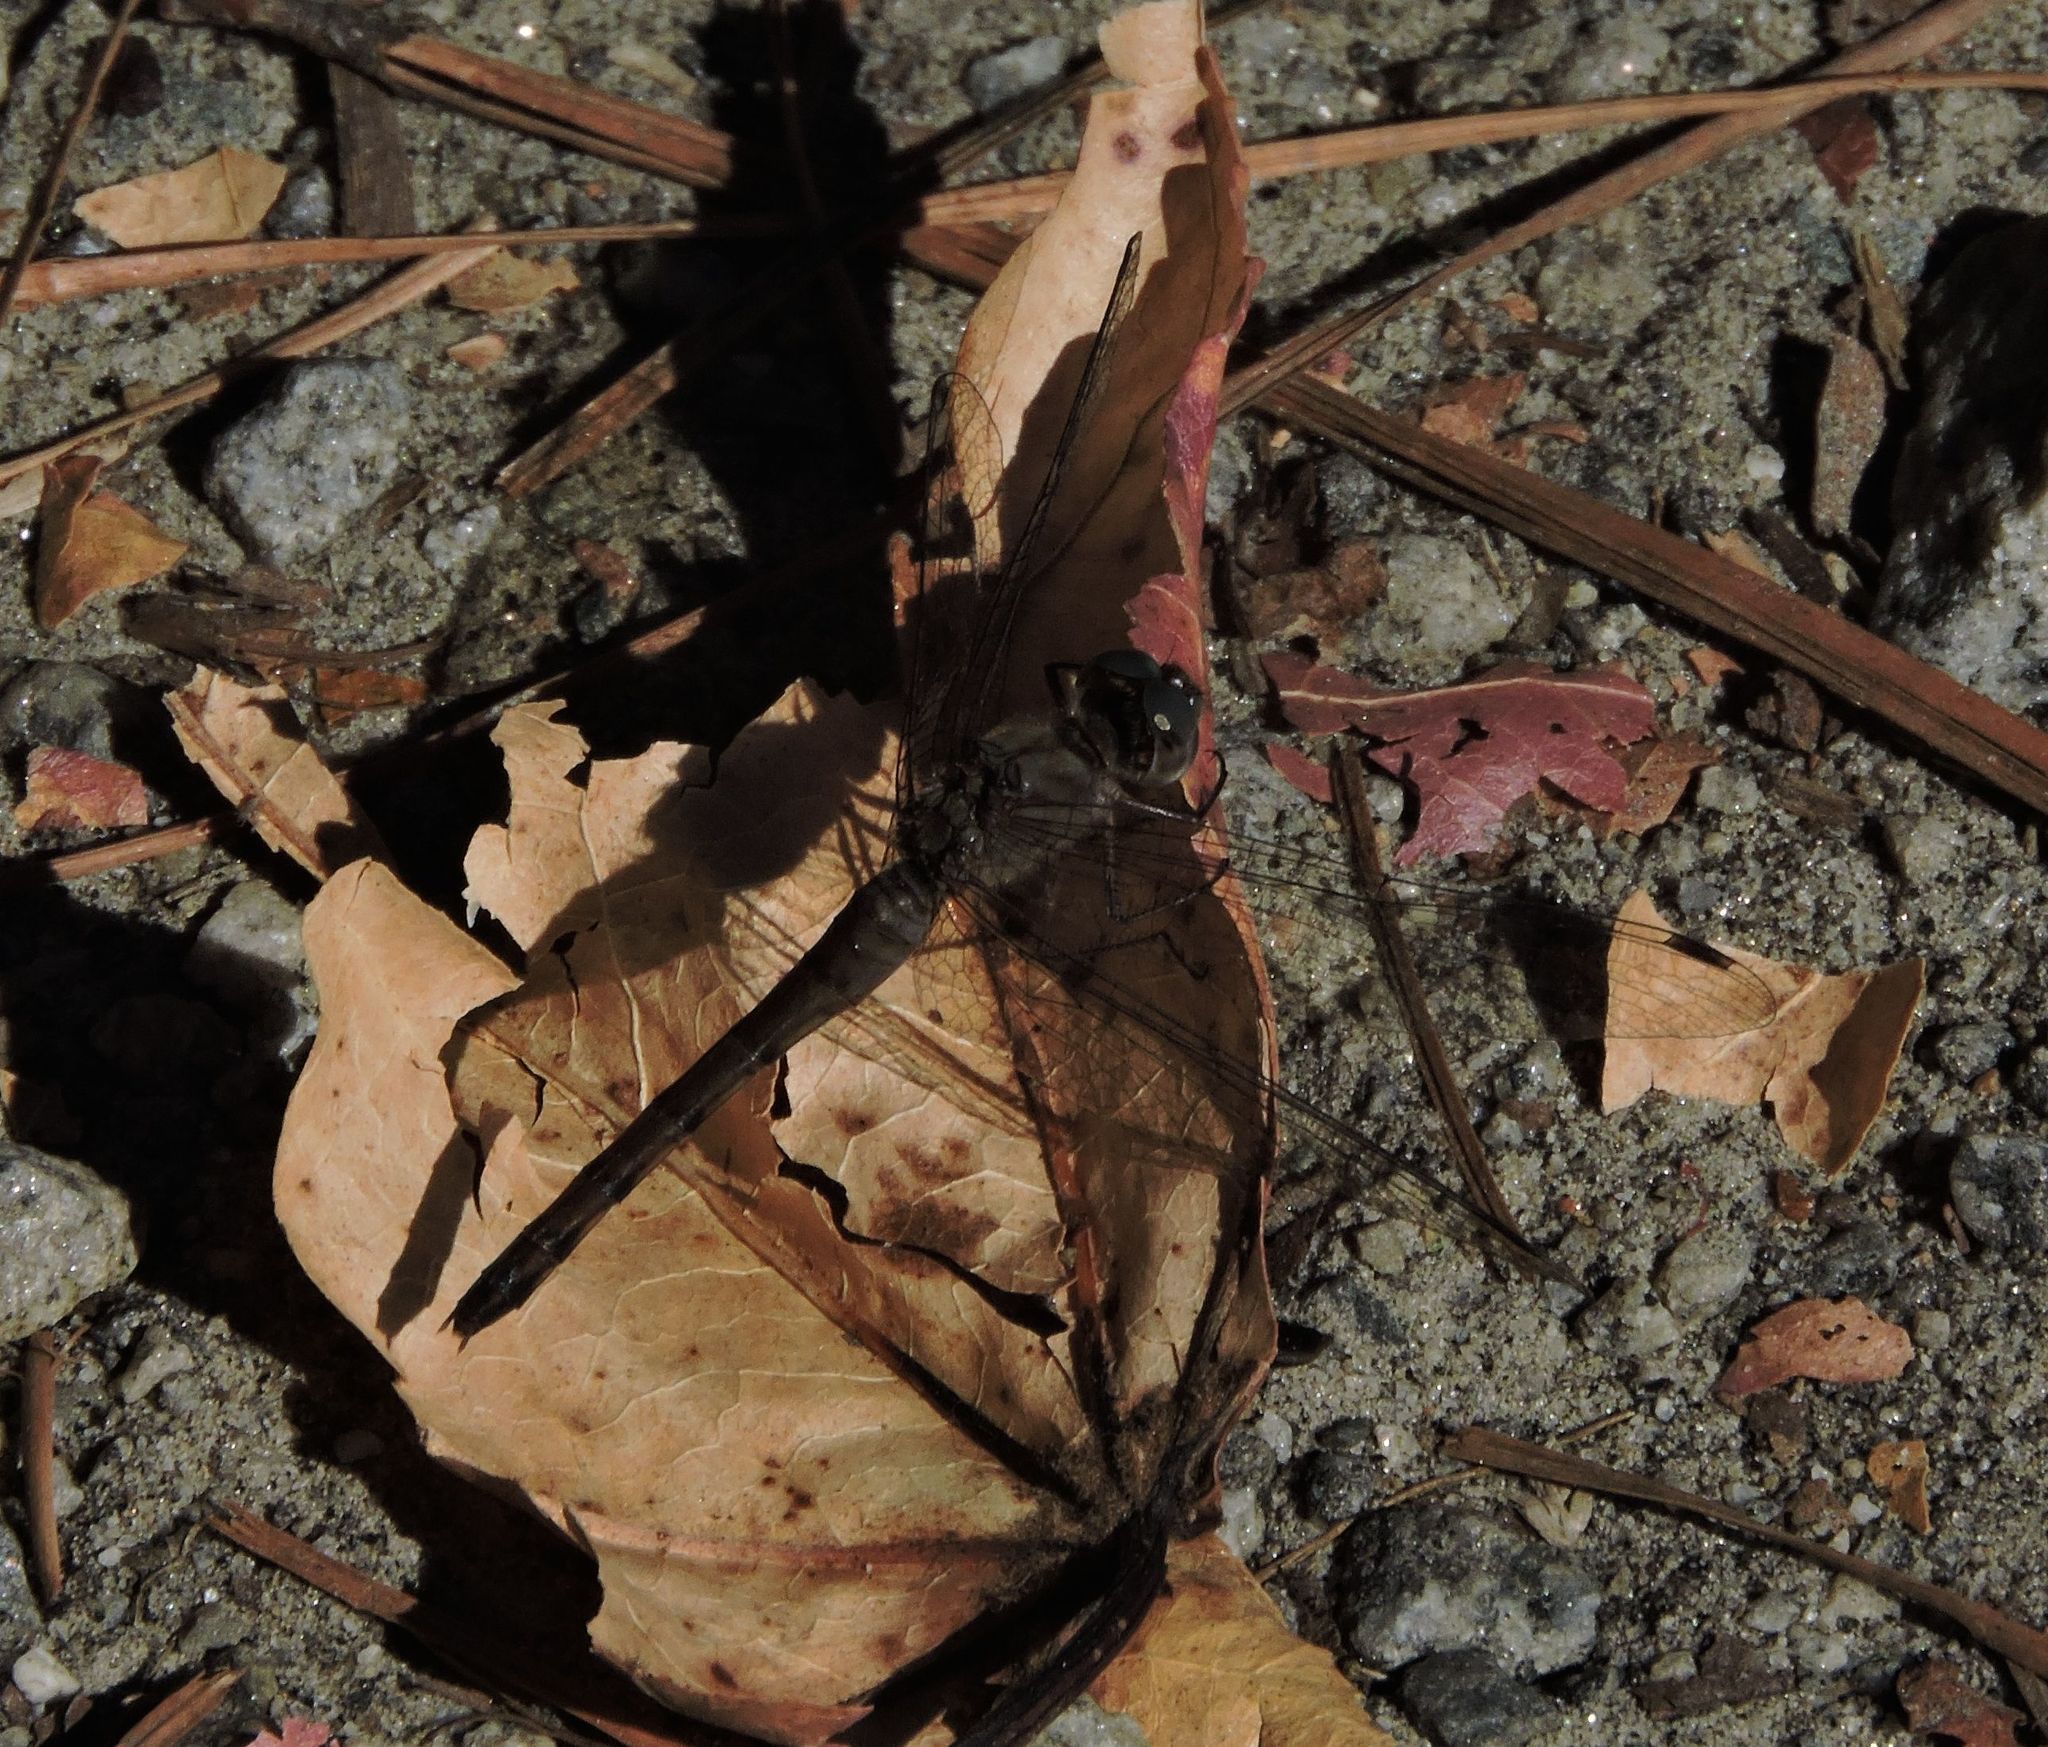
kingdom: Animalia
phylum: Arthropoda
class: Insecta
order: Odonata
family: Libellulidae
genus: Sympetrum
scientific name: Sympetrum ambiguum
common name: Blue-faced meadowhawk
